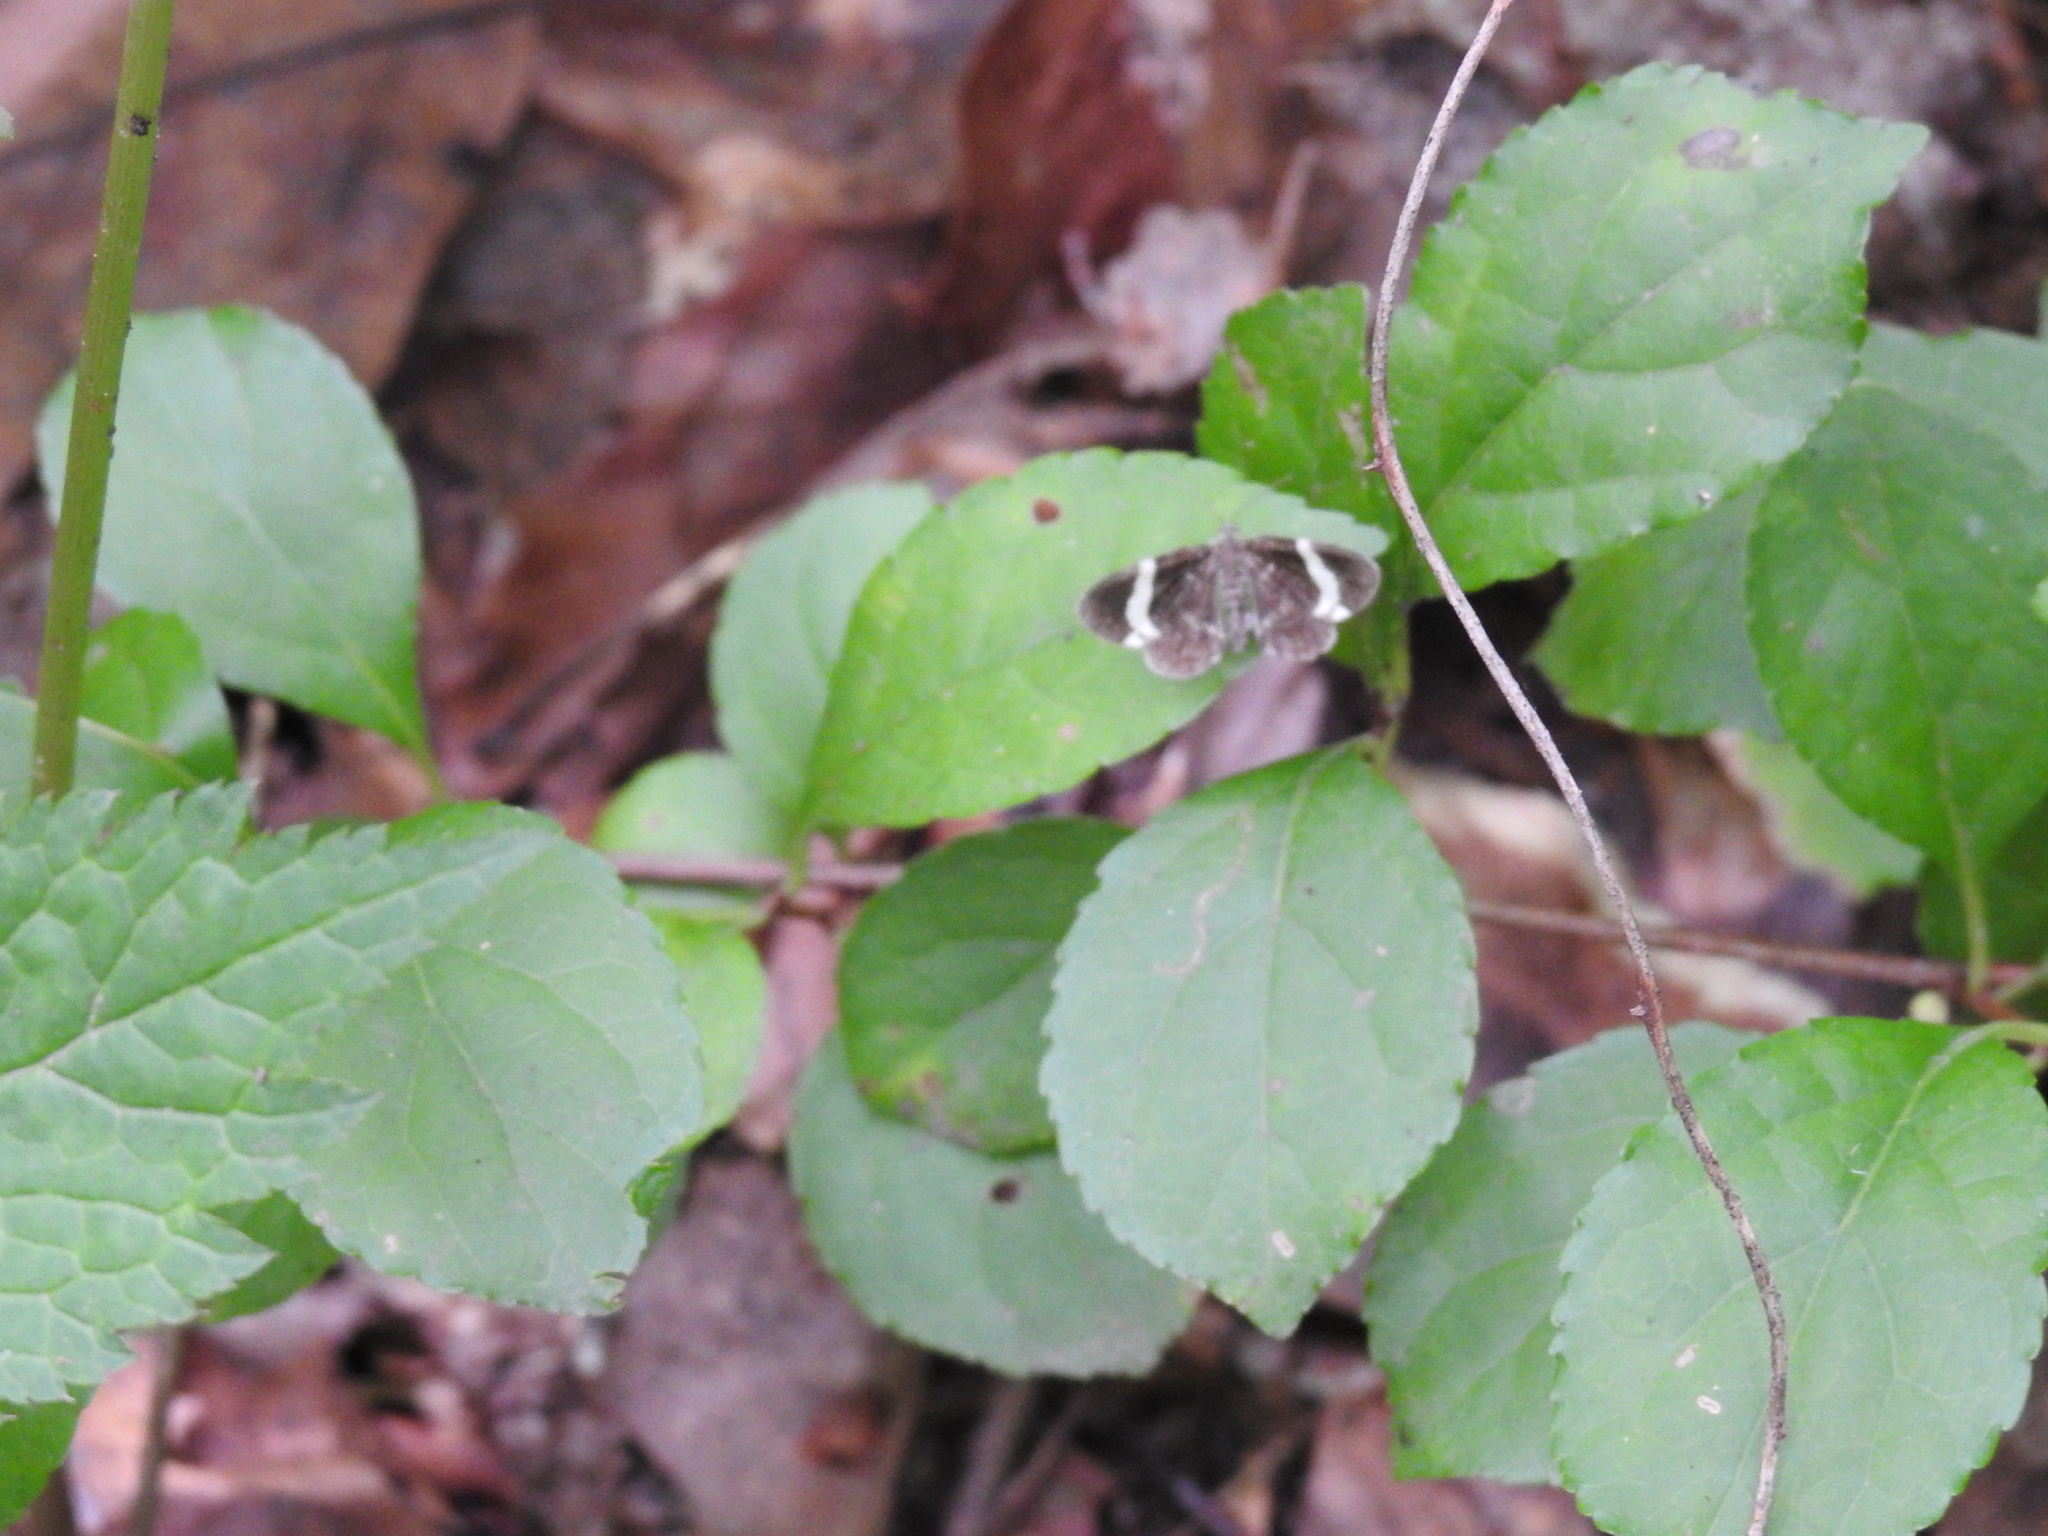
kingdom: Animalia
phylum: Arthropoda
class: Insecta
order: Lepidoptera
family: Geometridae
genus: Trichodezia
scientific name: Trichodezia albovittata
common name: White striped black
